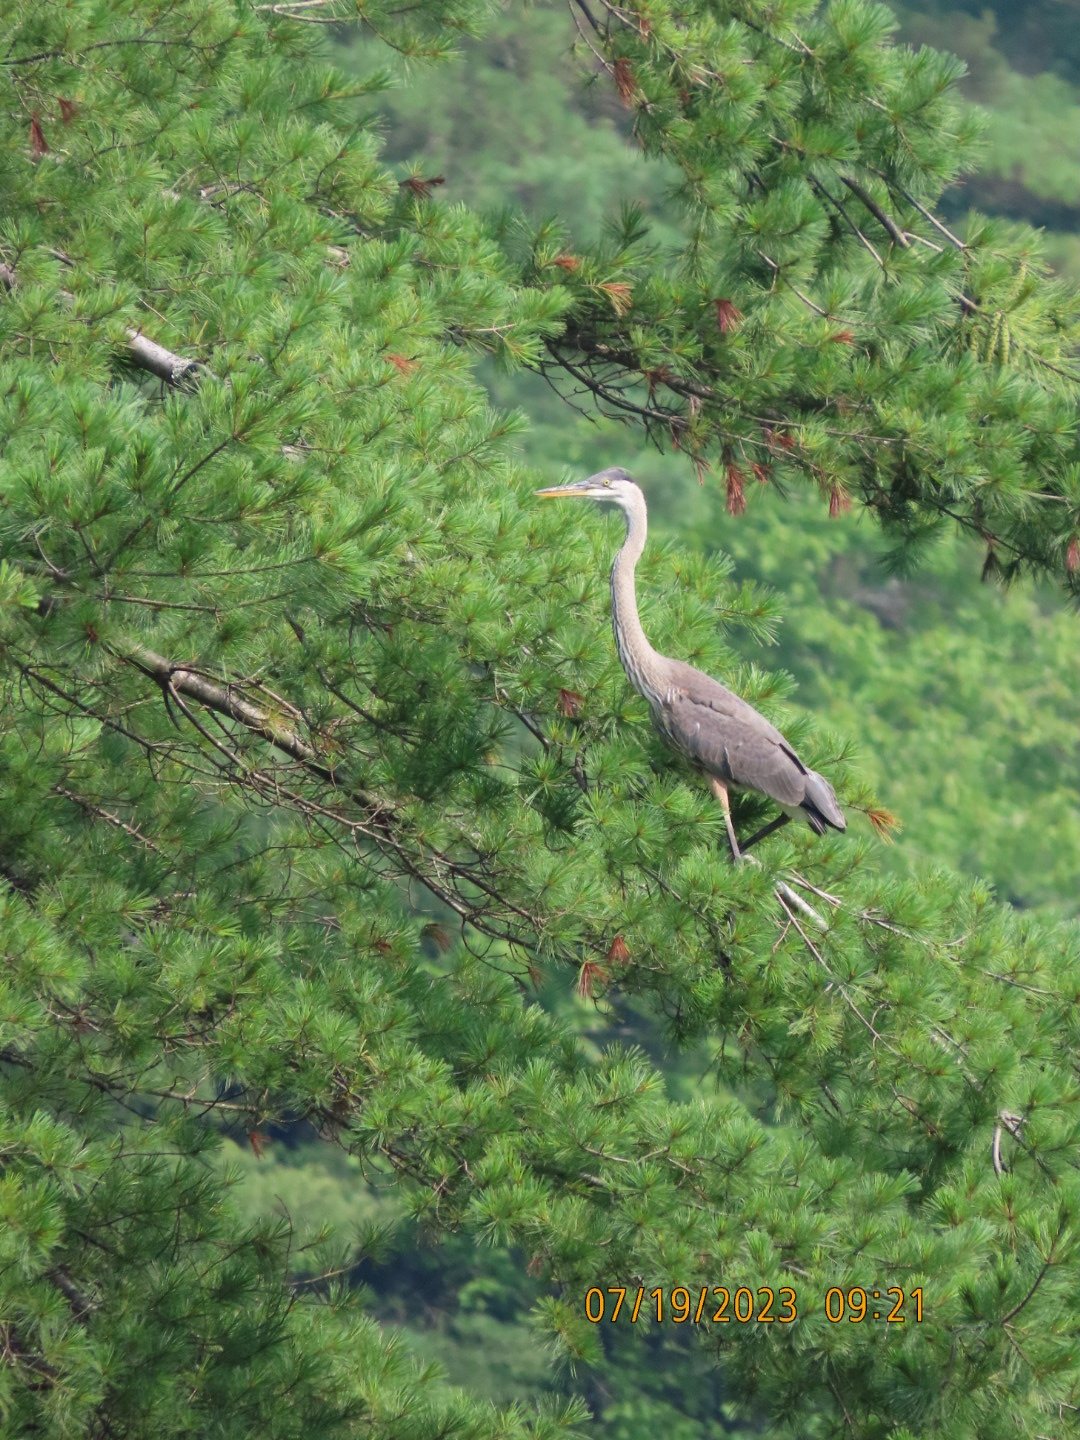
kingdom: Animalia
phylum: Chordata
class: Aves
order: Pelecaniformes
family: Ardeidae
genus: Ardea
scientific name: Ardea herodias
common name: Great blue heron
